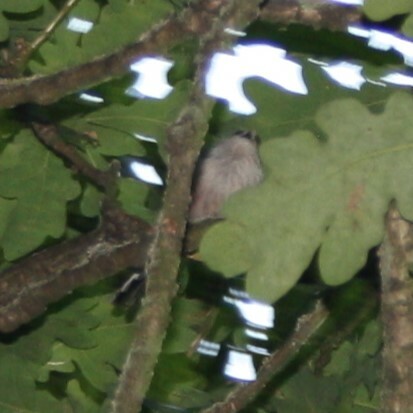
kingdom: Animalia
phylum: Chordata
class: Aves
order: Passeriformes
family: Aegithalidae
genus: Aegithalos
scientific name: Aegithalos caudatus
